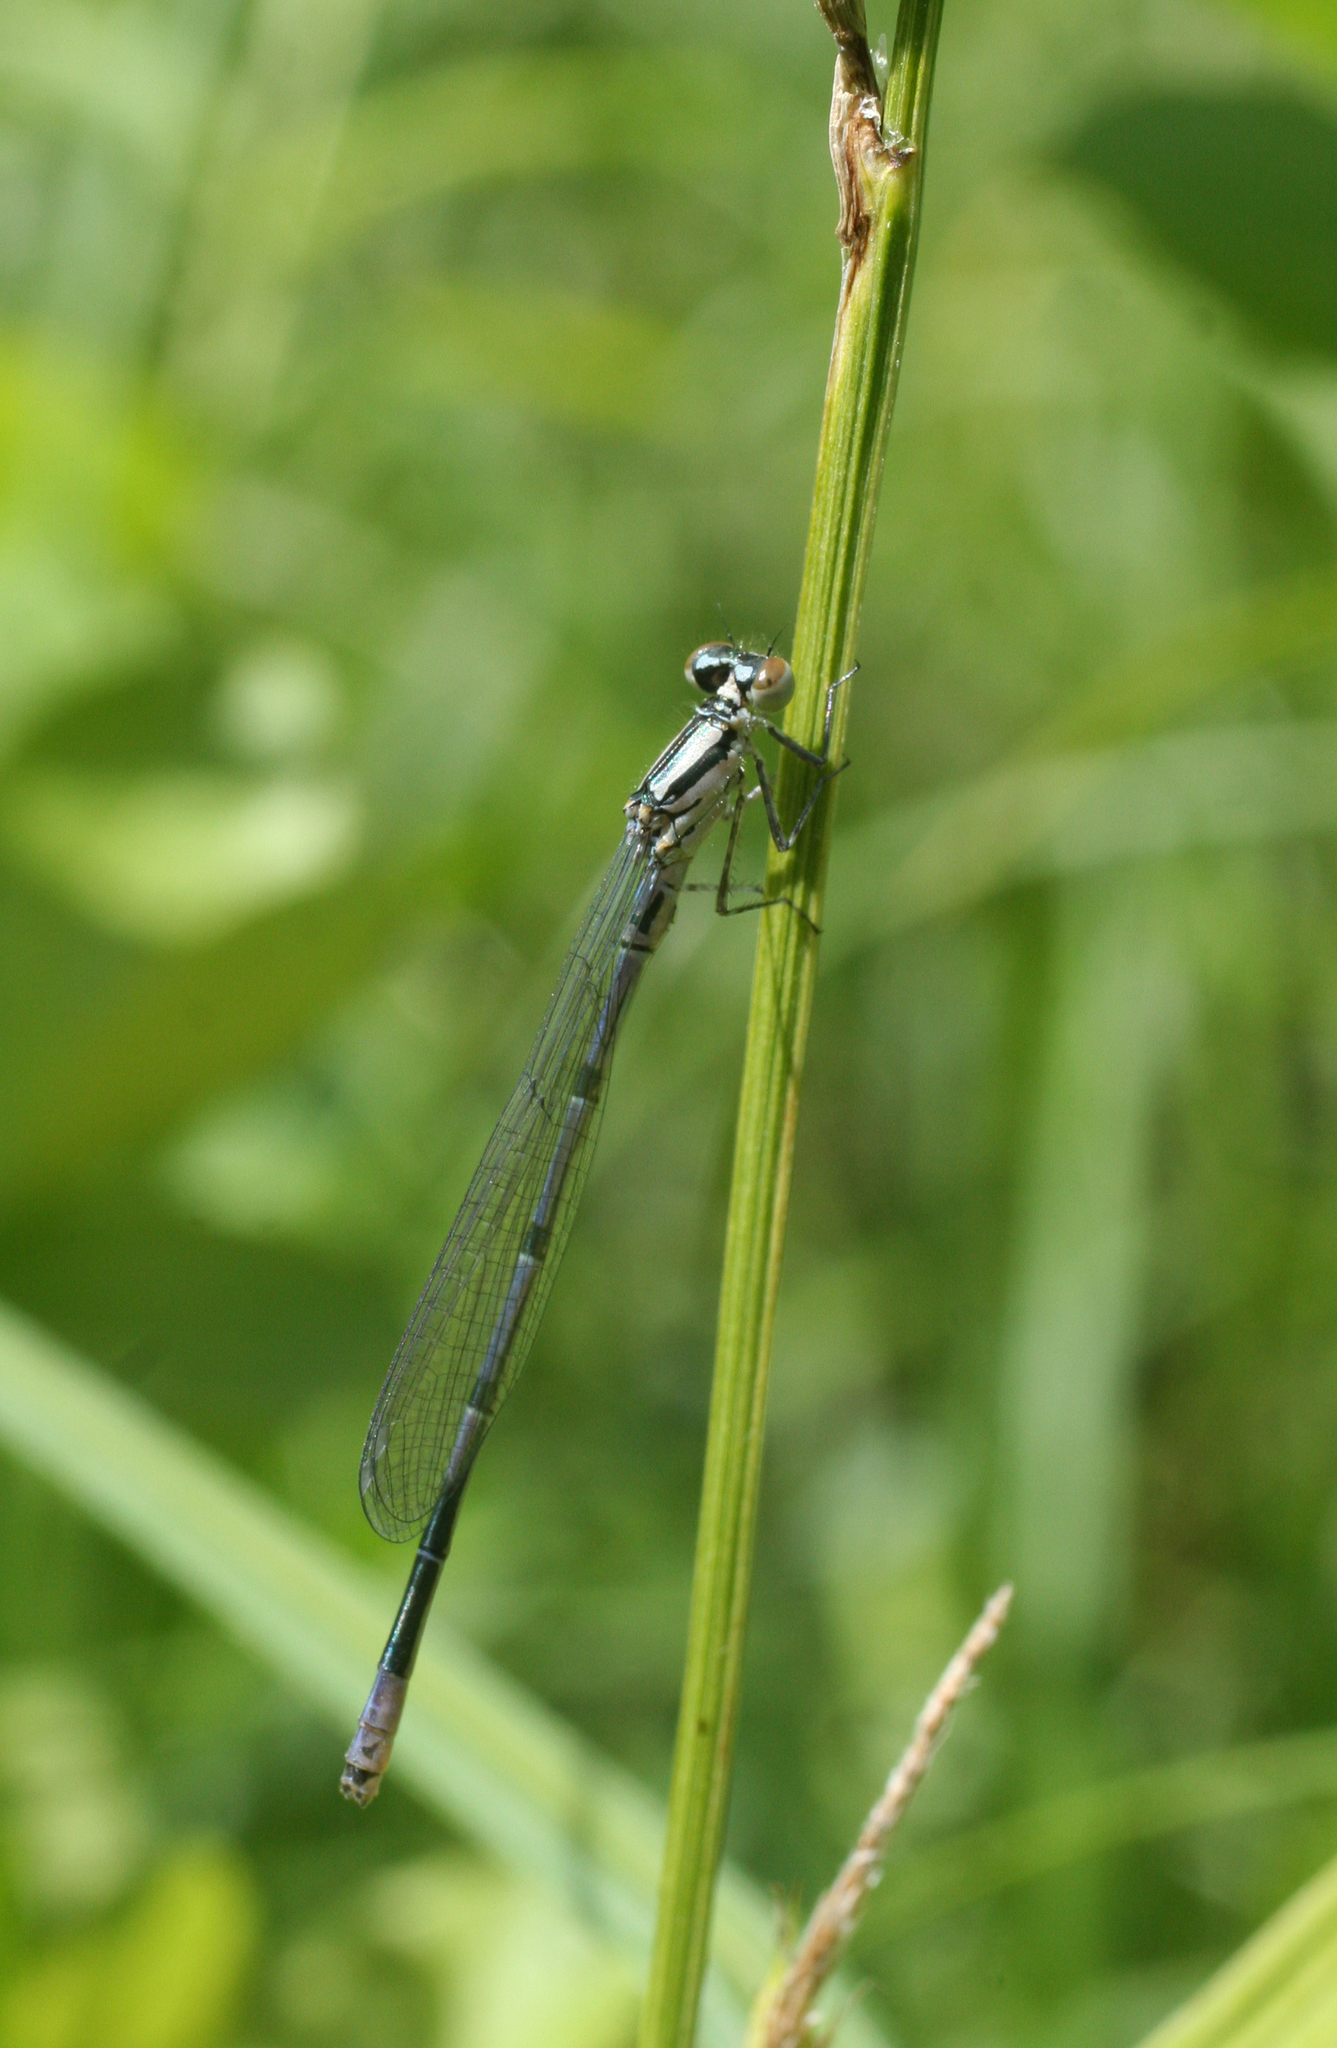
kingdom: Animalia
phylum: Arthropoda
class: Insecta
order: Odonata
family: Coenagrionidae
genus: Coenagrion
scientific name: Coenagrion puella
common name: Azure damselfly
